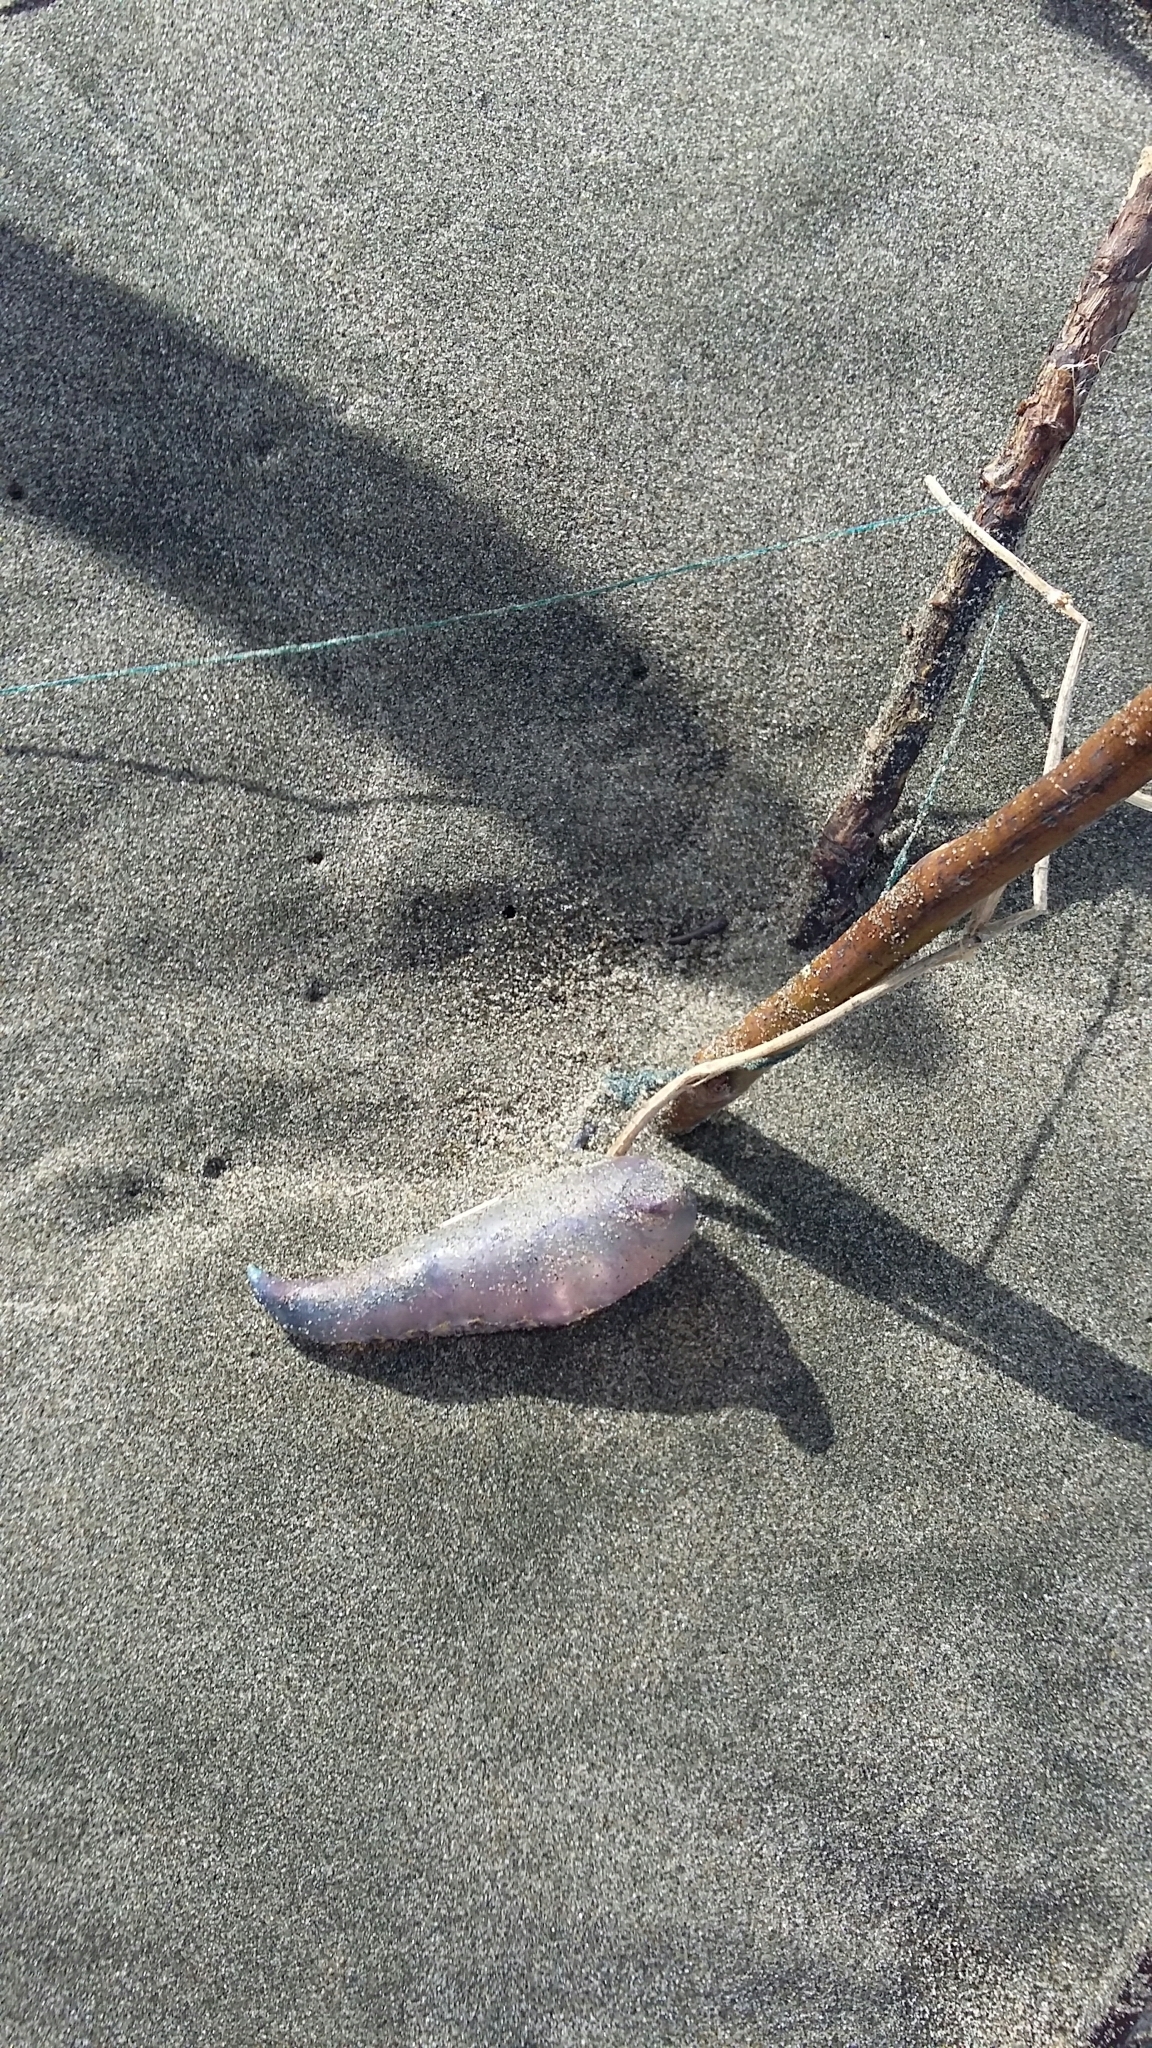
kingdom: Animalia
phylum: Cnidaria
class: Hydrozoa
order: Siphonophorae
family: Physaliidae
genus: Physalia
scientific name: Physalia physalis
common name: Portuguese man-of-war
